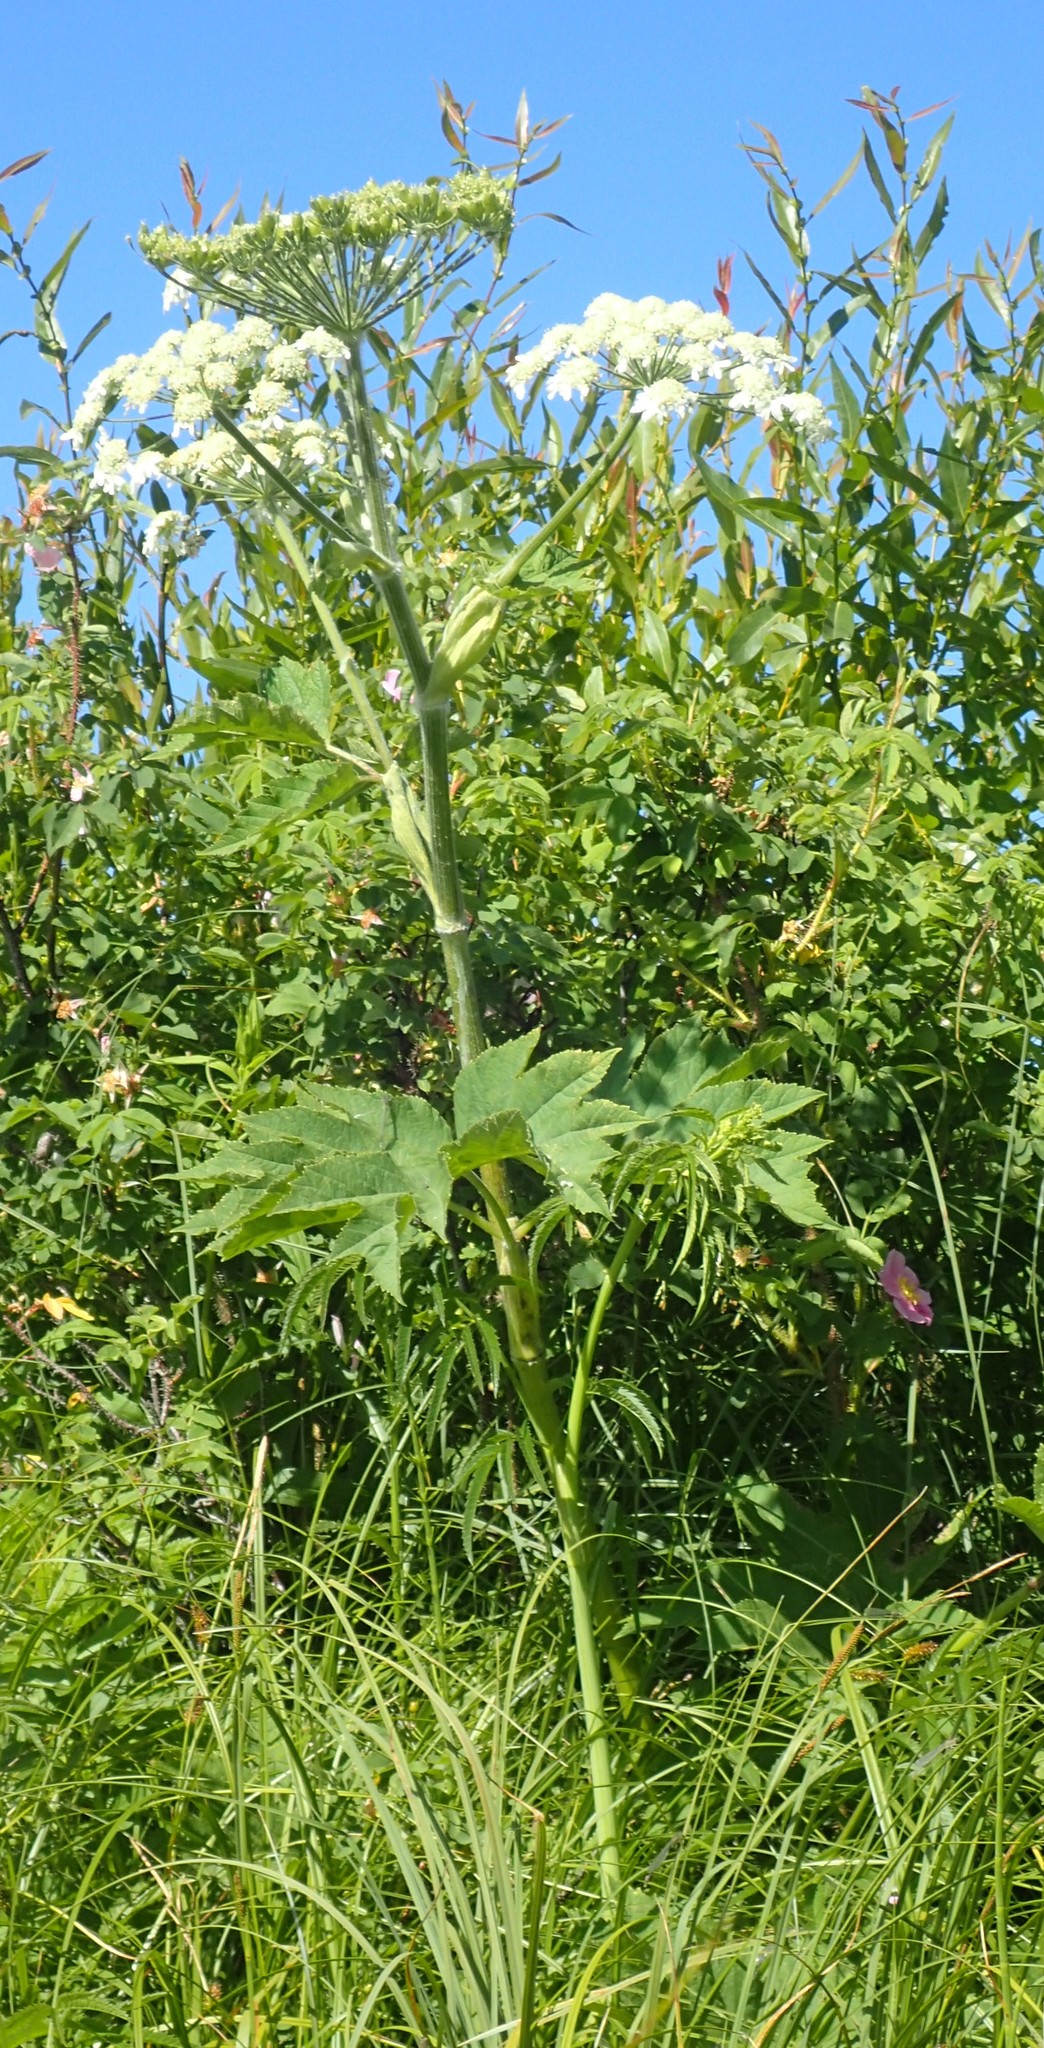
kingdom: Plantae
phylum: Tracheophyta
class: Magnoliopsida
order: Apiales
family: Apiaceae
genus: Heracleum
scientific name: Heracleum maximum
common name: American cow parsnip
